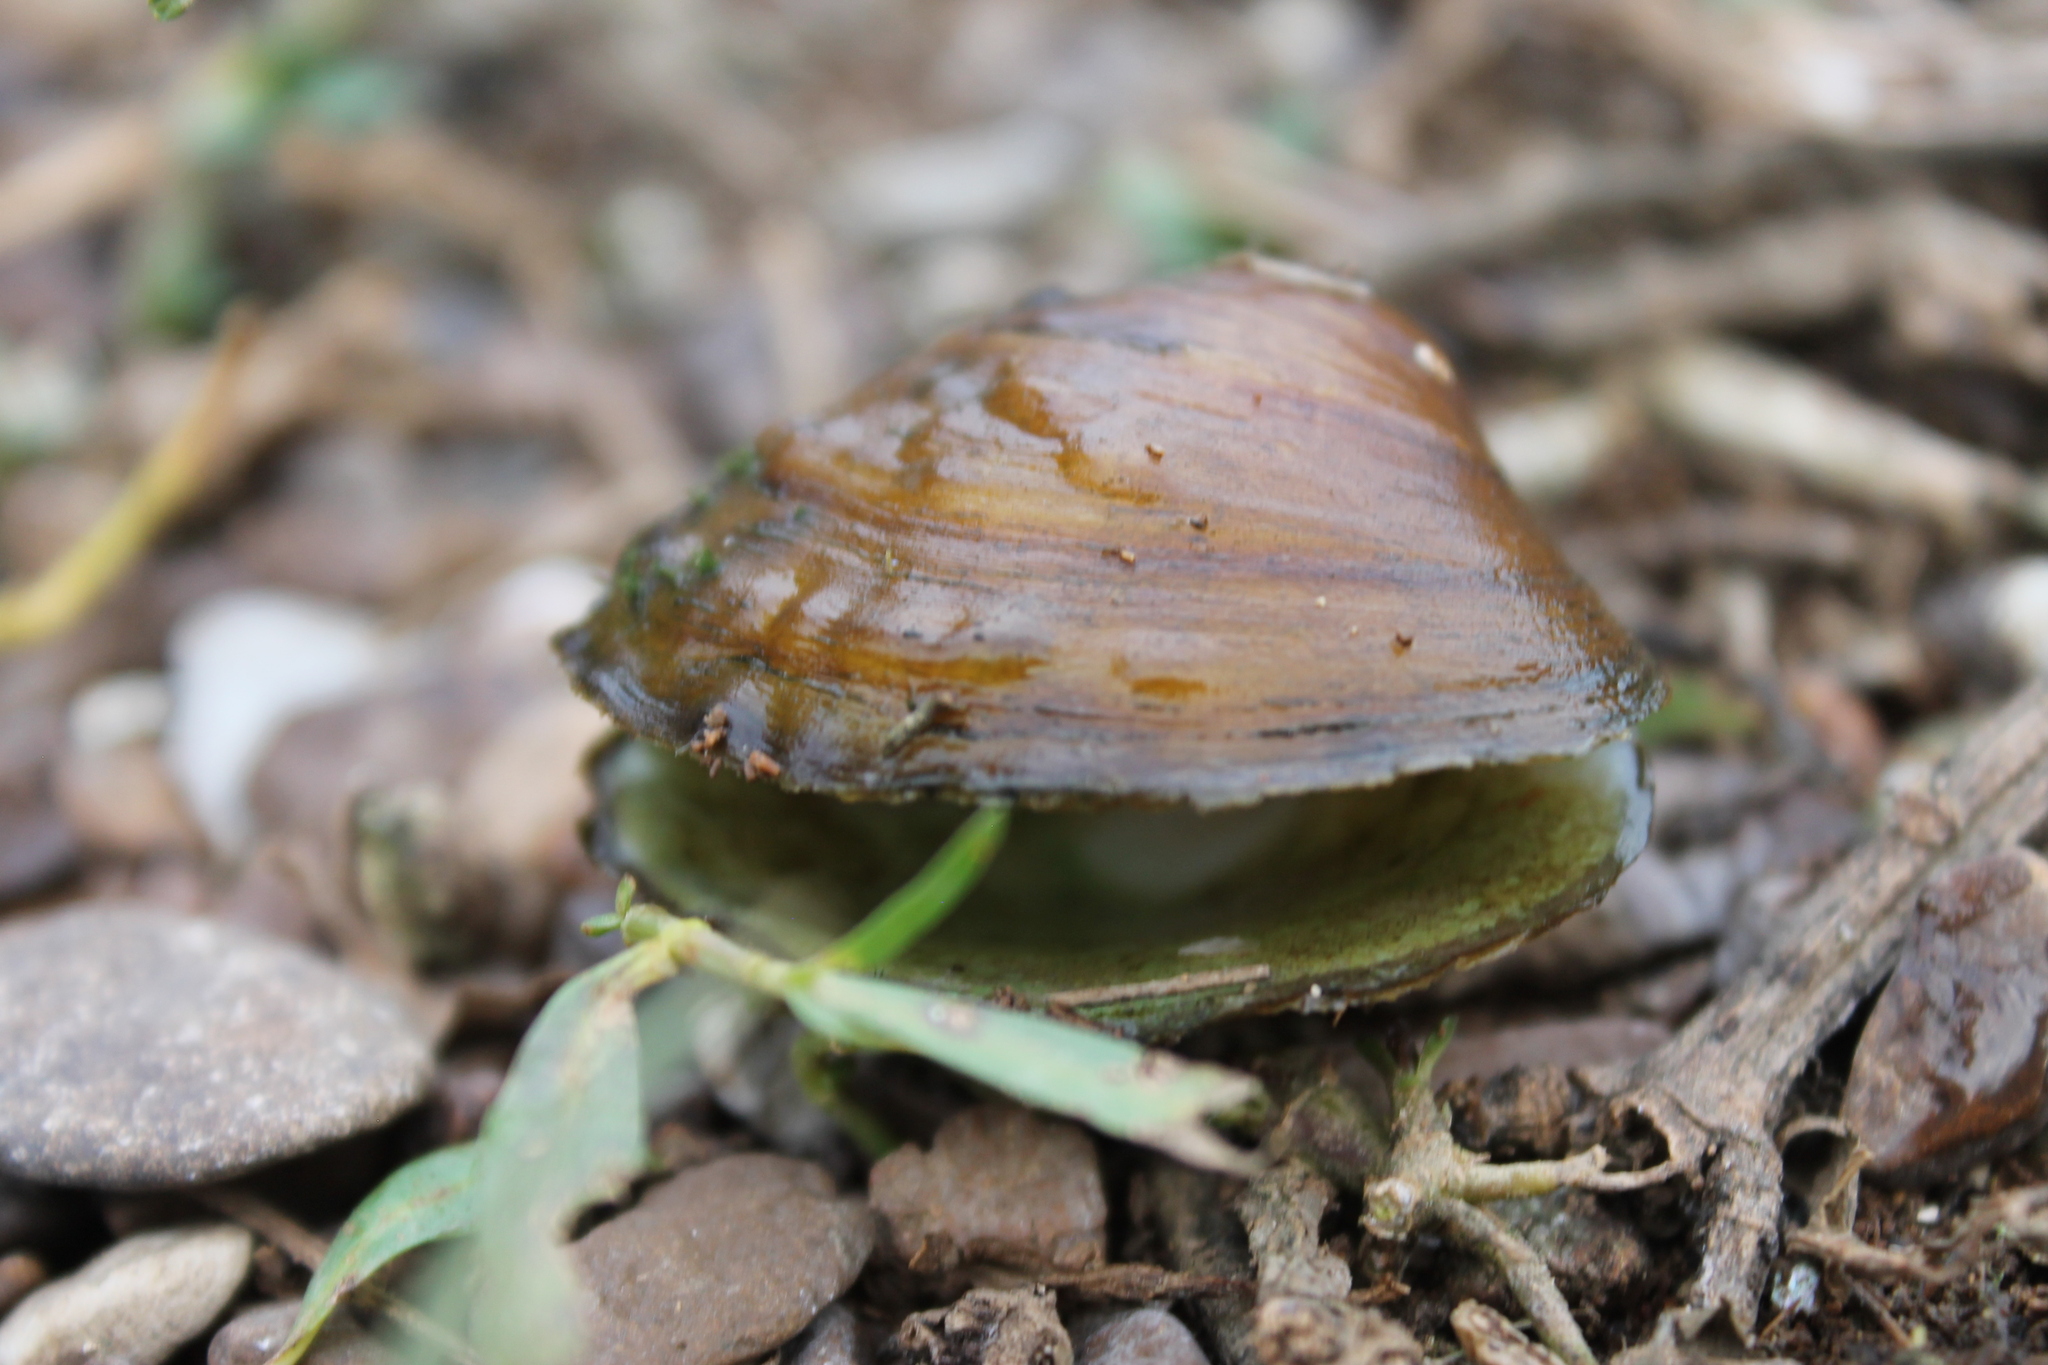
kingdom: Animalia
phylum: Mollusca
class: Bivalvia
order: Unionida
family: Unionidae
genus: Cyclonaias
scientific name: Cyclonaias pustulosa
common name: Pimpleback
